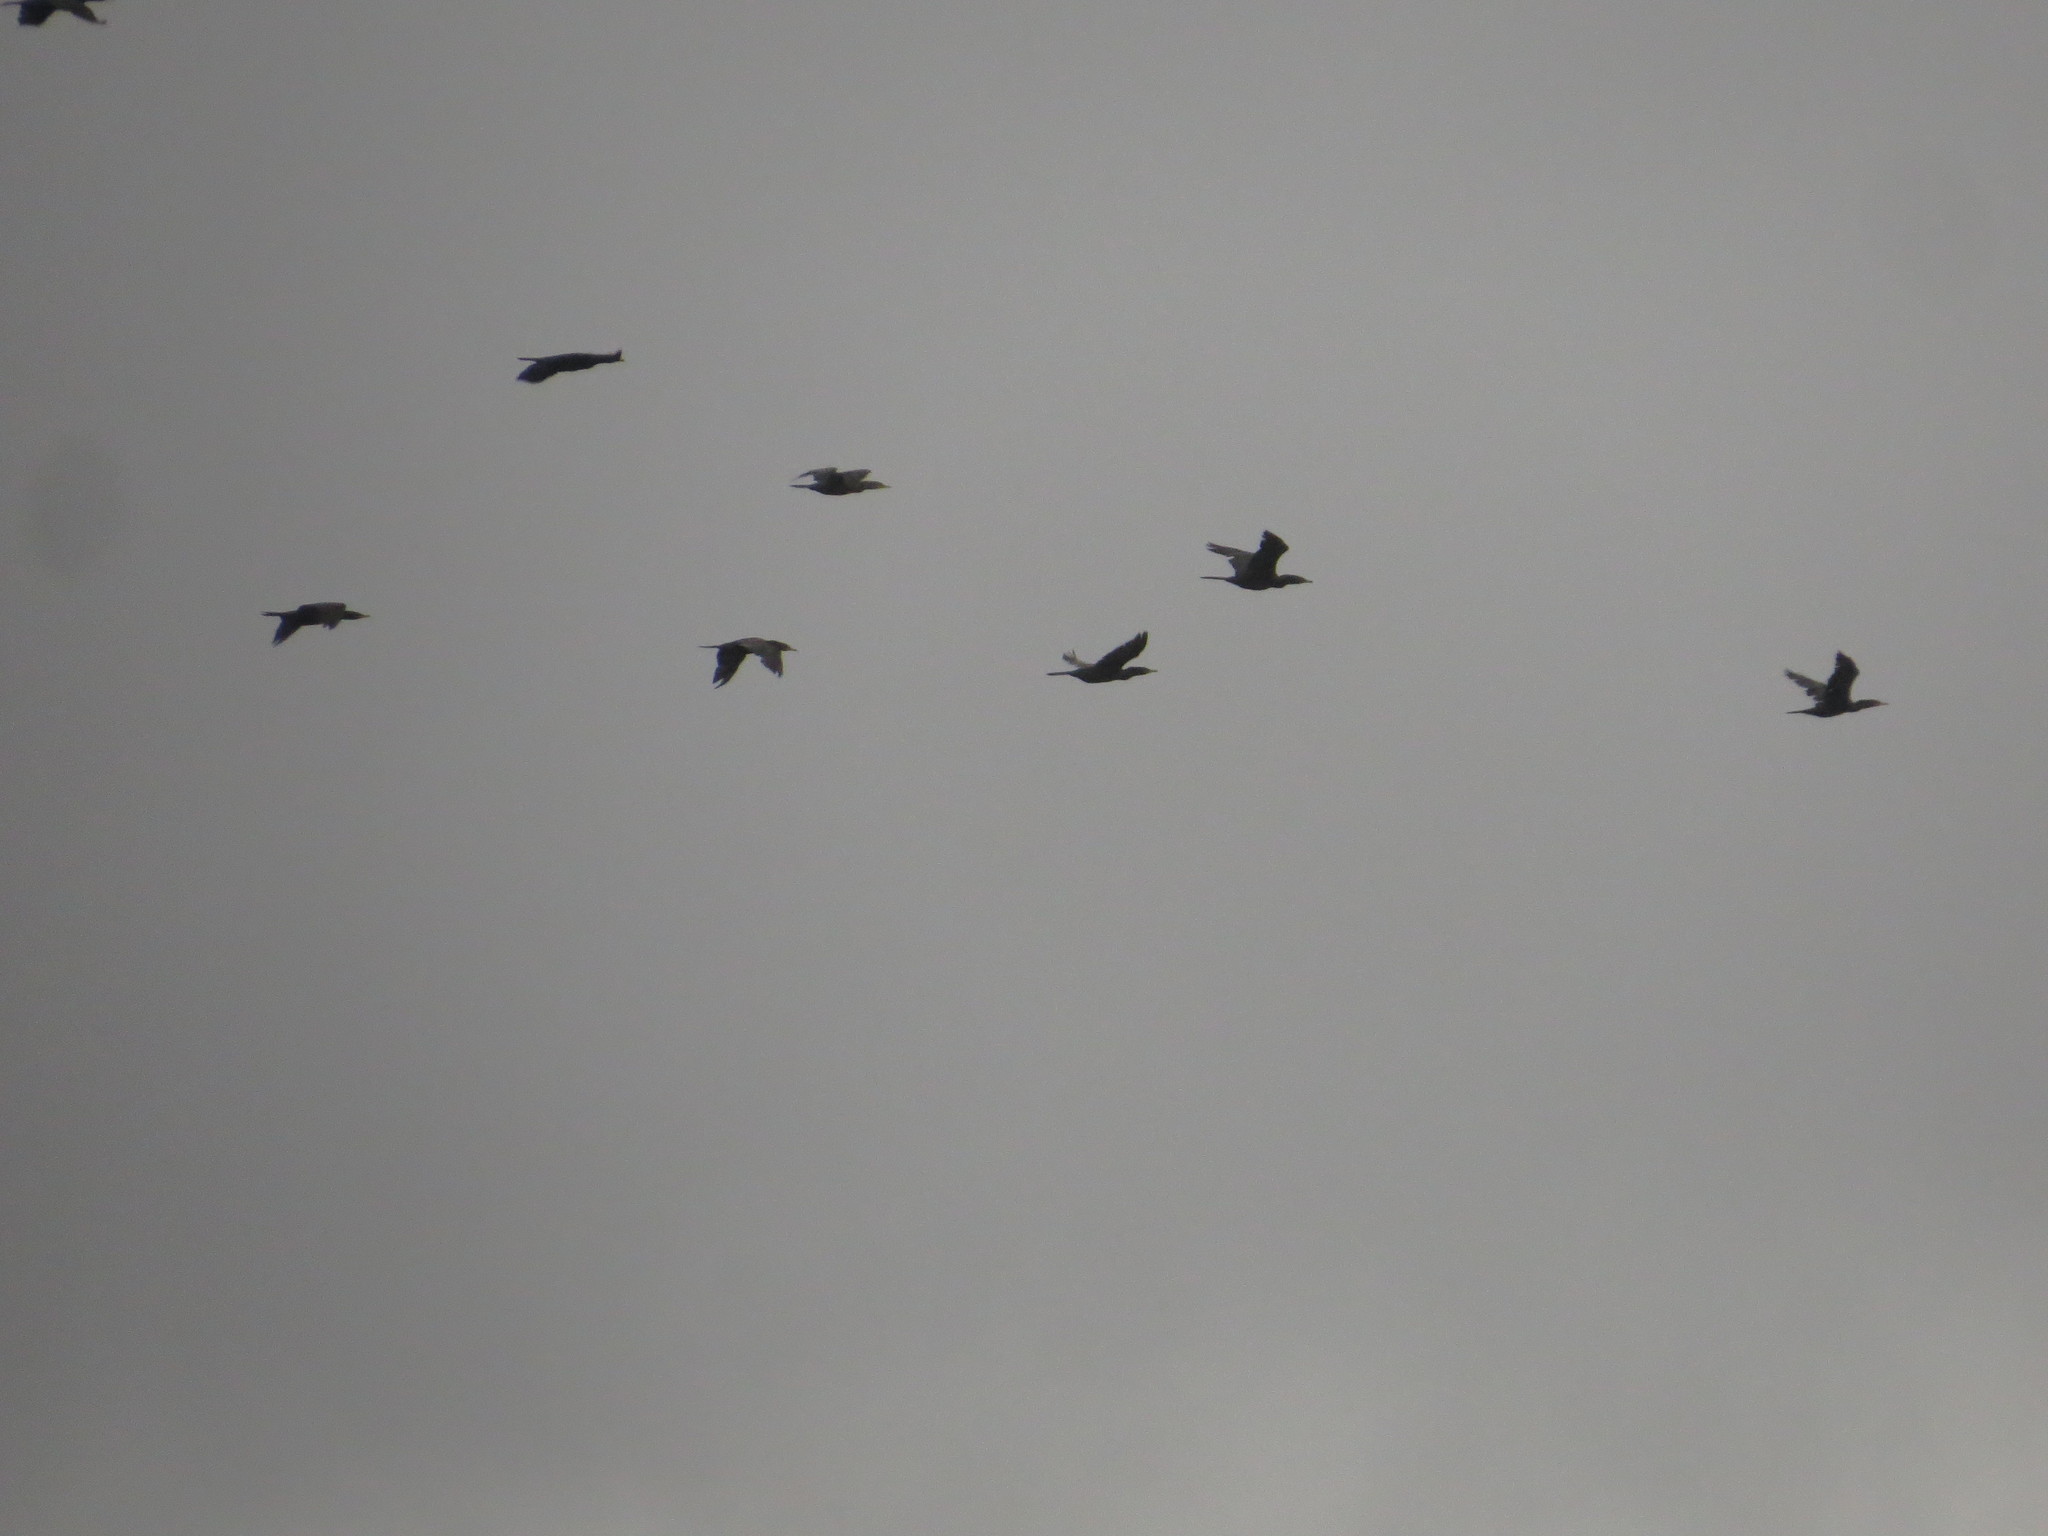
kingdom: Animalia
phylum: Chordata
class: Aves
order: Suliformes
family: Phalacrocoracidae
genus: Phalacrocorax
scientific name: Phalacrocorax brasilianus
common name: Neotropic cormorant
